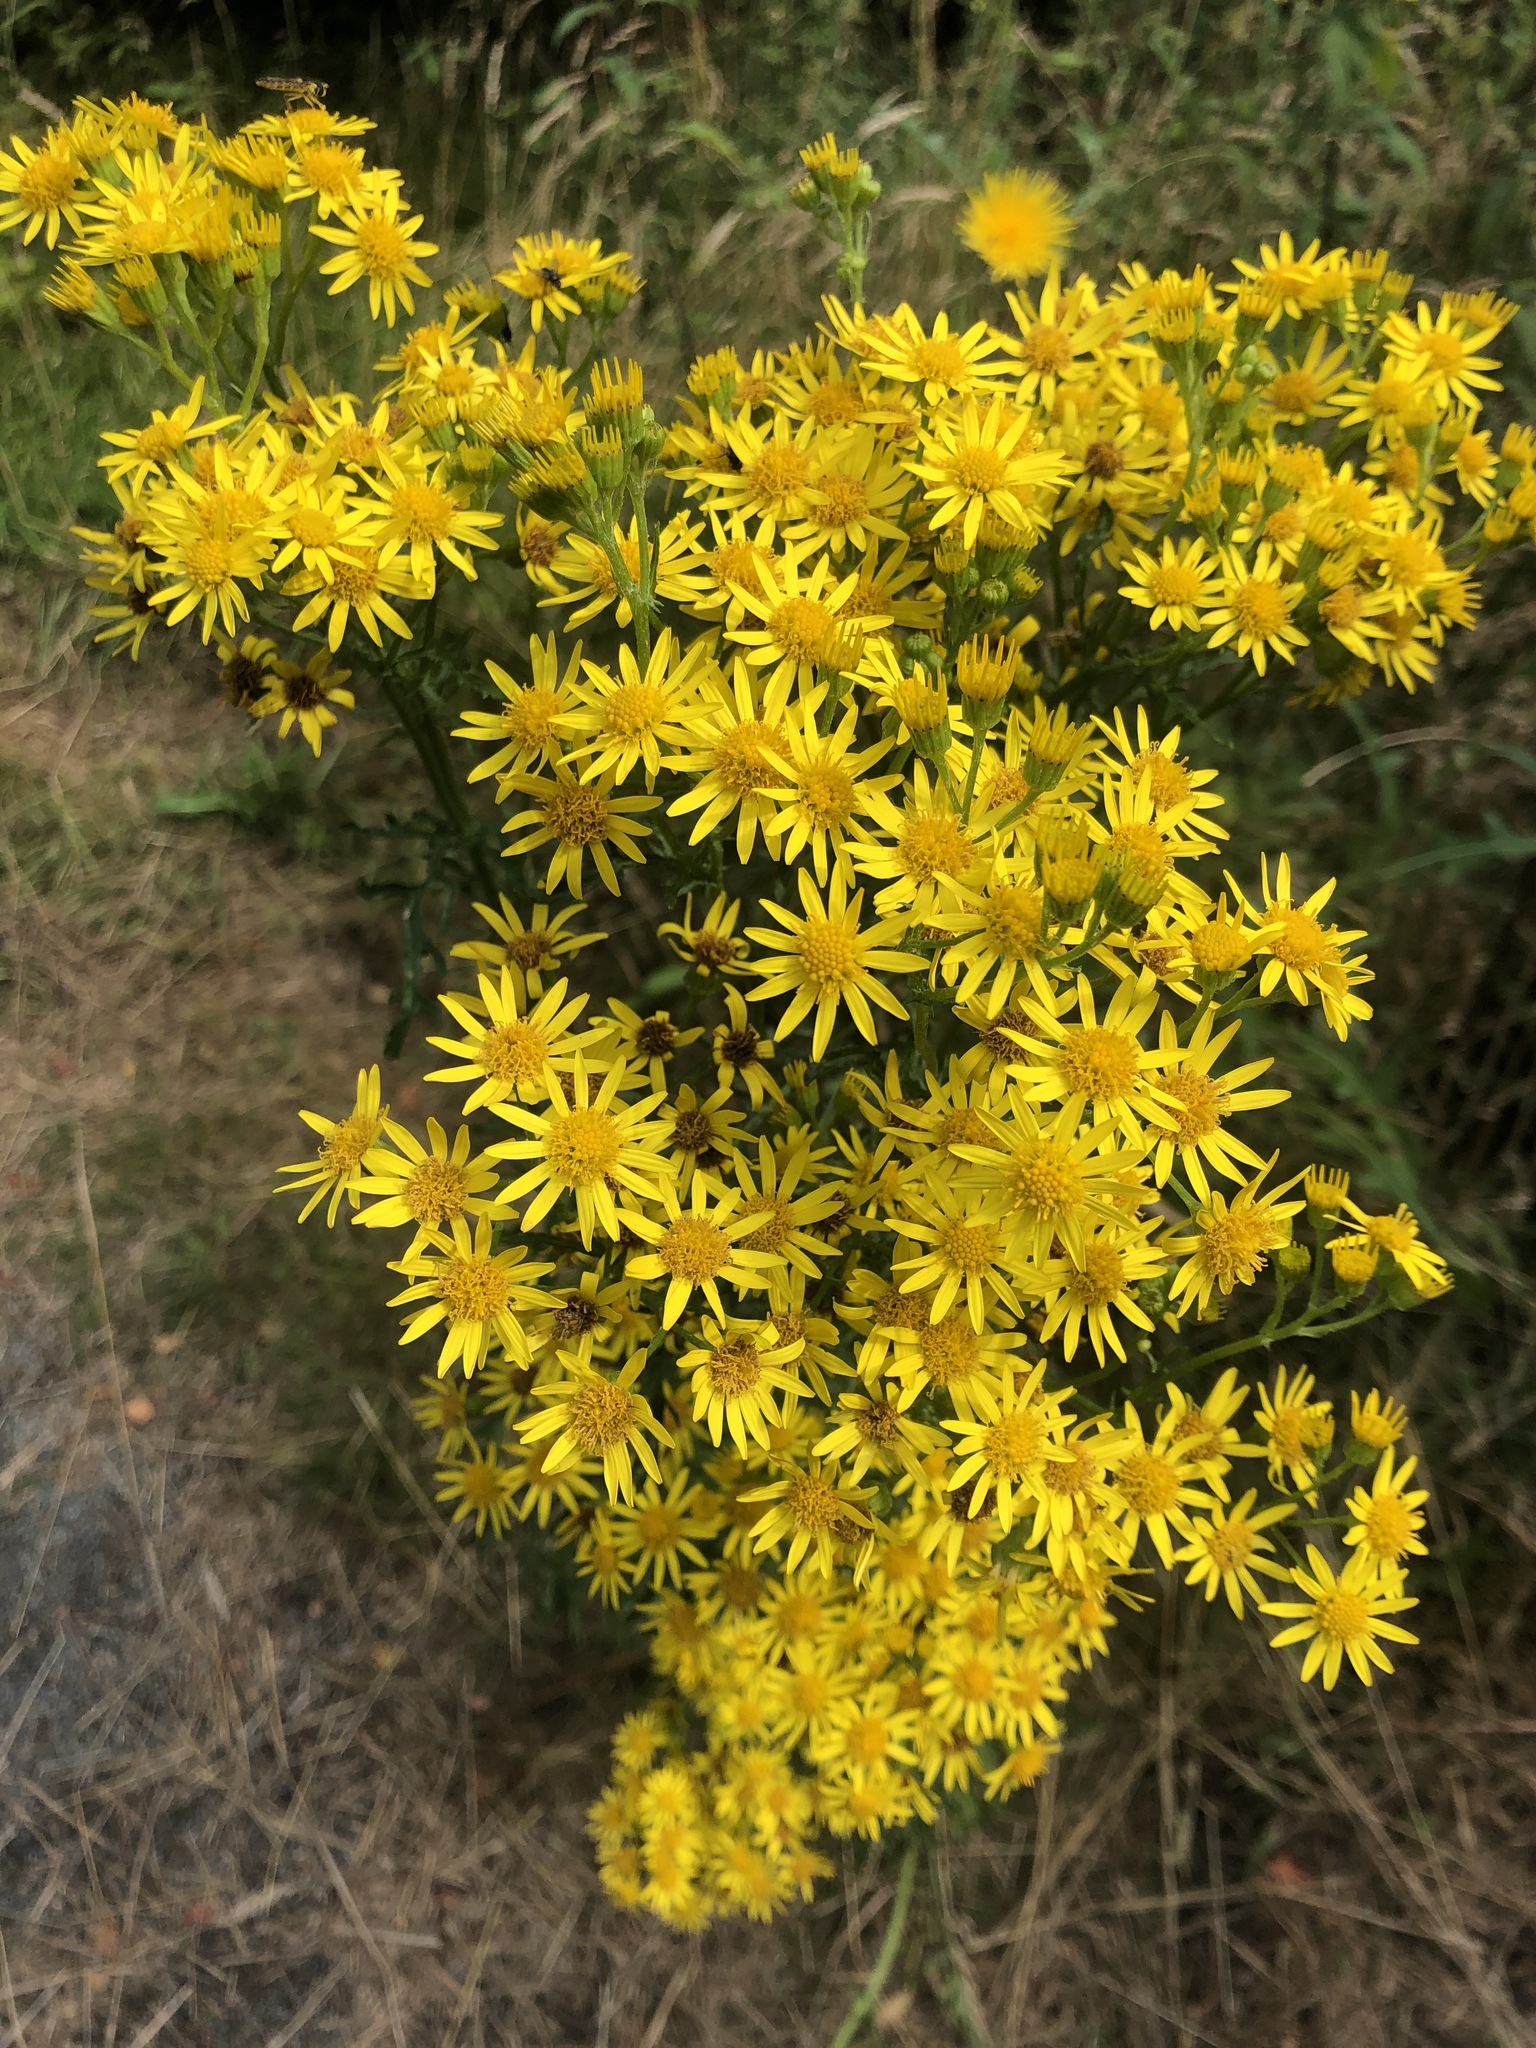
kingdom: Plantae
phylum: Tracheophyta
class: Magnoliopsida
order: Asterales
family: Asteraceae
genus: Jacobaea
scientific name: Jacobaea vulgaris
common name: Stinking willie
